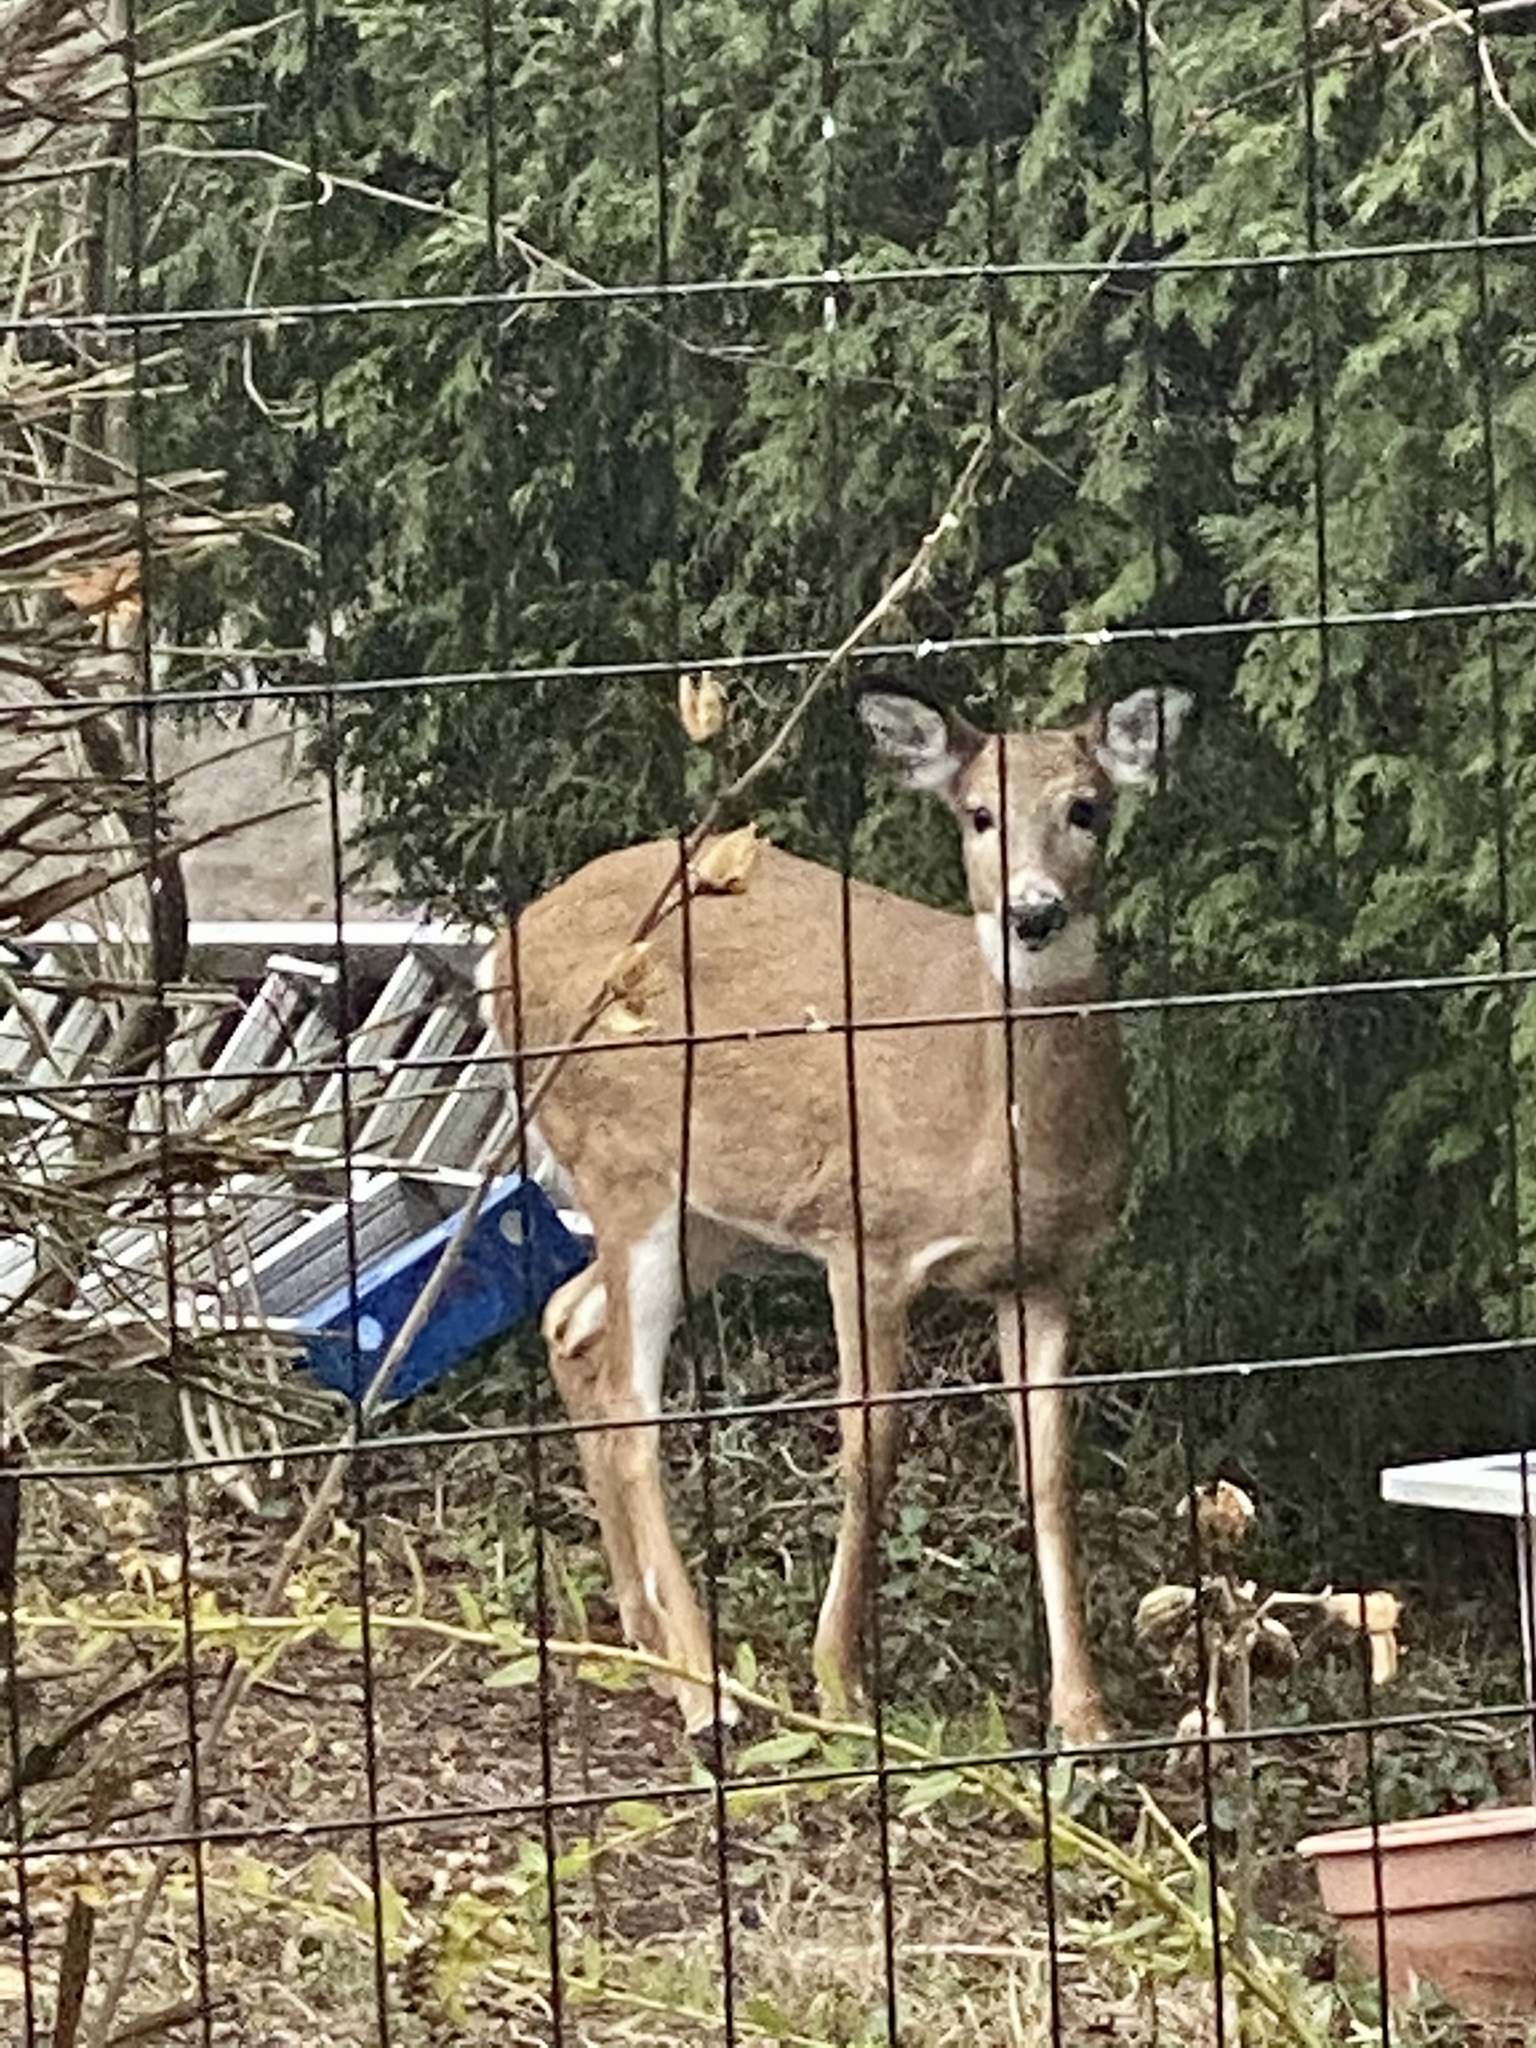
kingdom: Animalia
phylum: Chordata
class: Mammalia
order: Artiodactyla
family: Cervidae
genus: Odocoileus
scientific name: Odocoileus virginianus
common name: White-tailed deer
